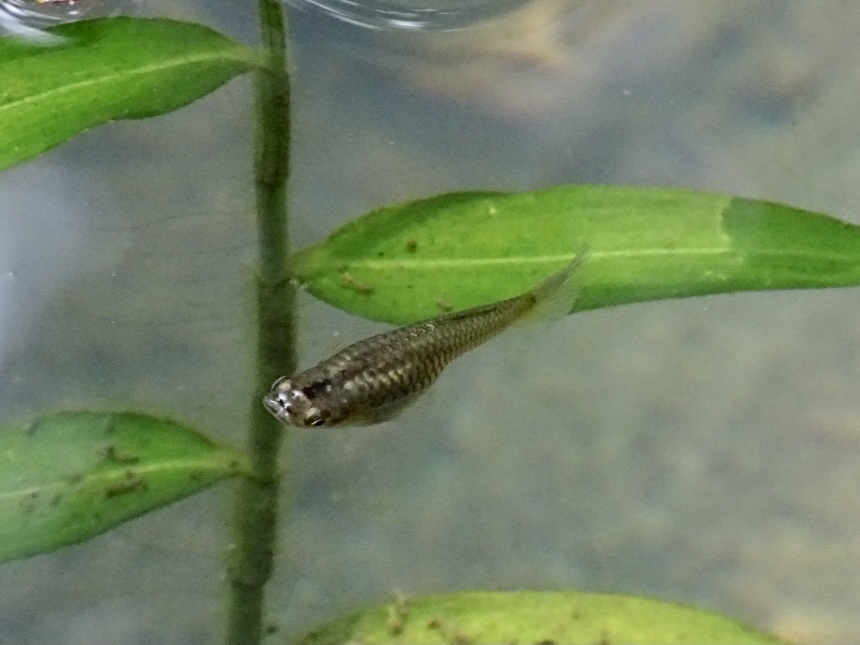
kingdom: Animalia
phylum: Chordata
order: Cyprinodontiformes
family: Poeciliidae
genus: Poecilia
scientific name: Poecilia reticulata
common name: Guppy
